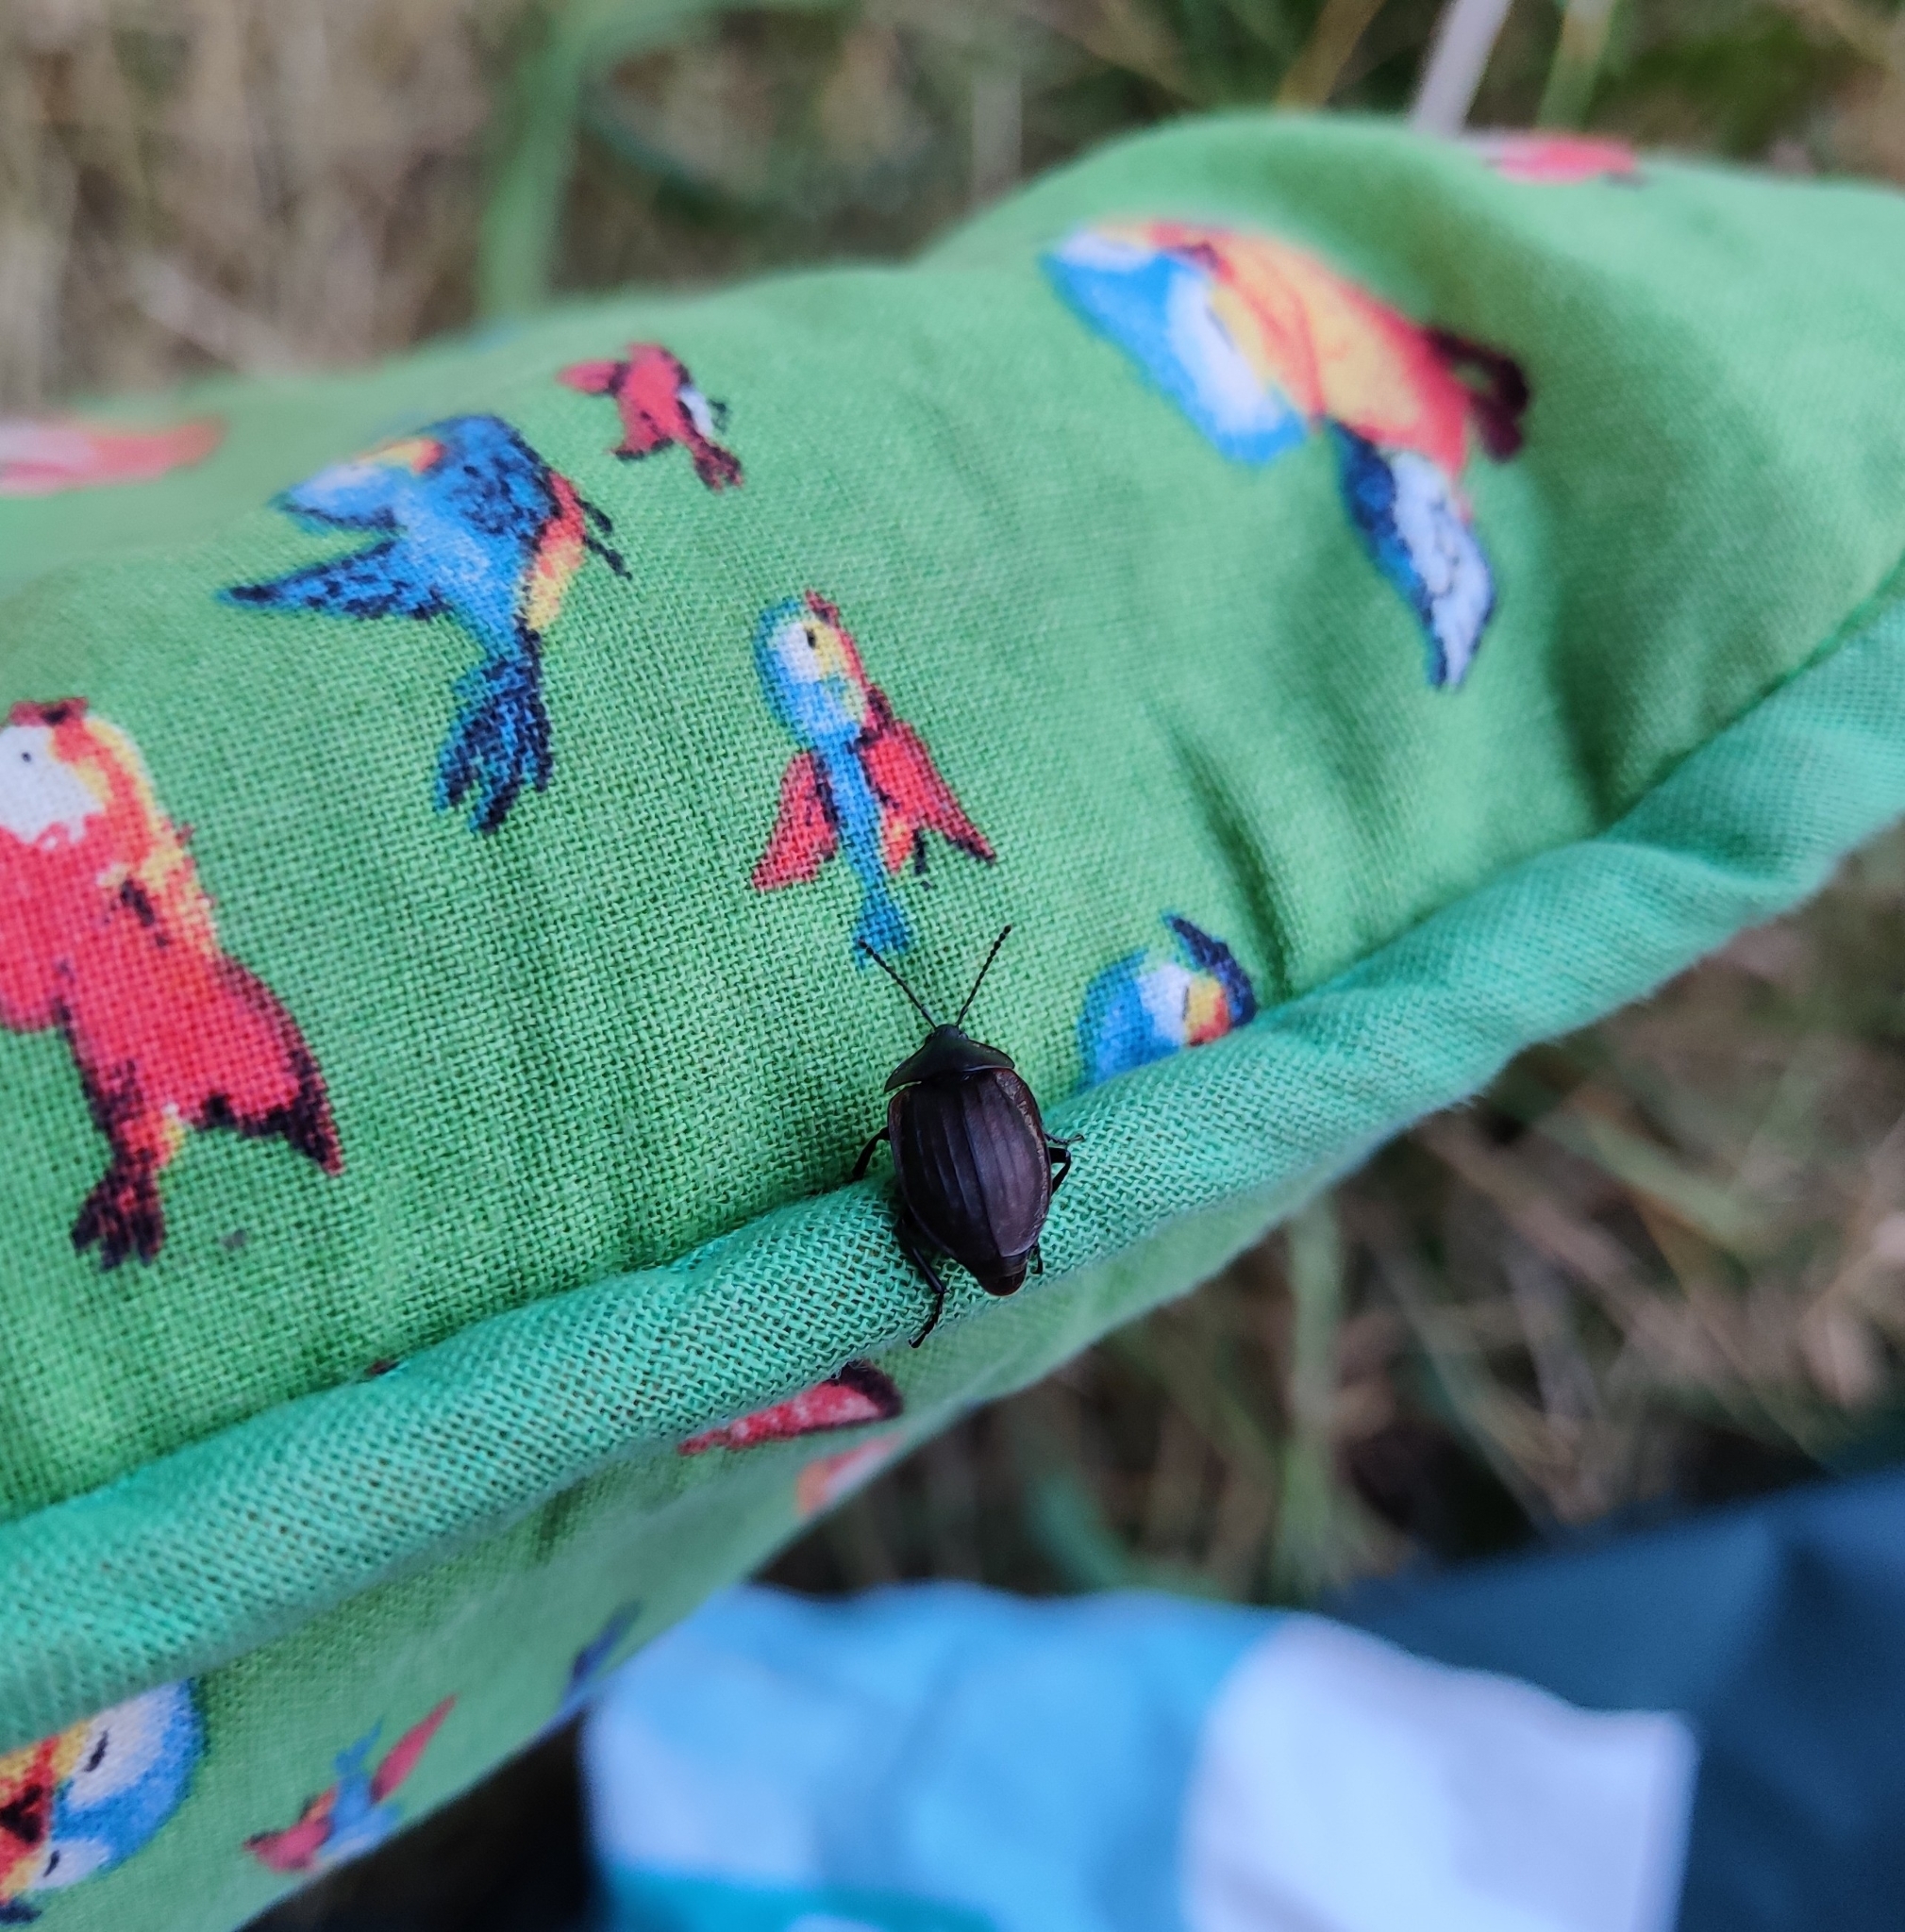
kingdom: Animalia
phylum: Arthropoda
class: Insecta
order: Coleoptera
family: Staphylinidae
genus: Silpha
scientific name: Silpha atrata
